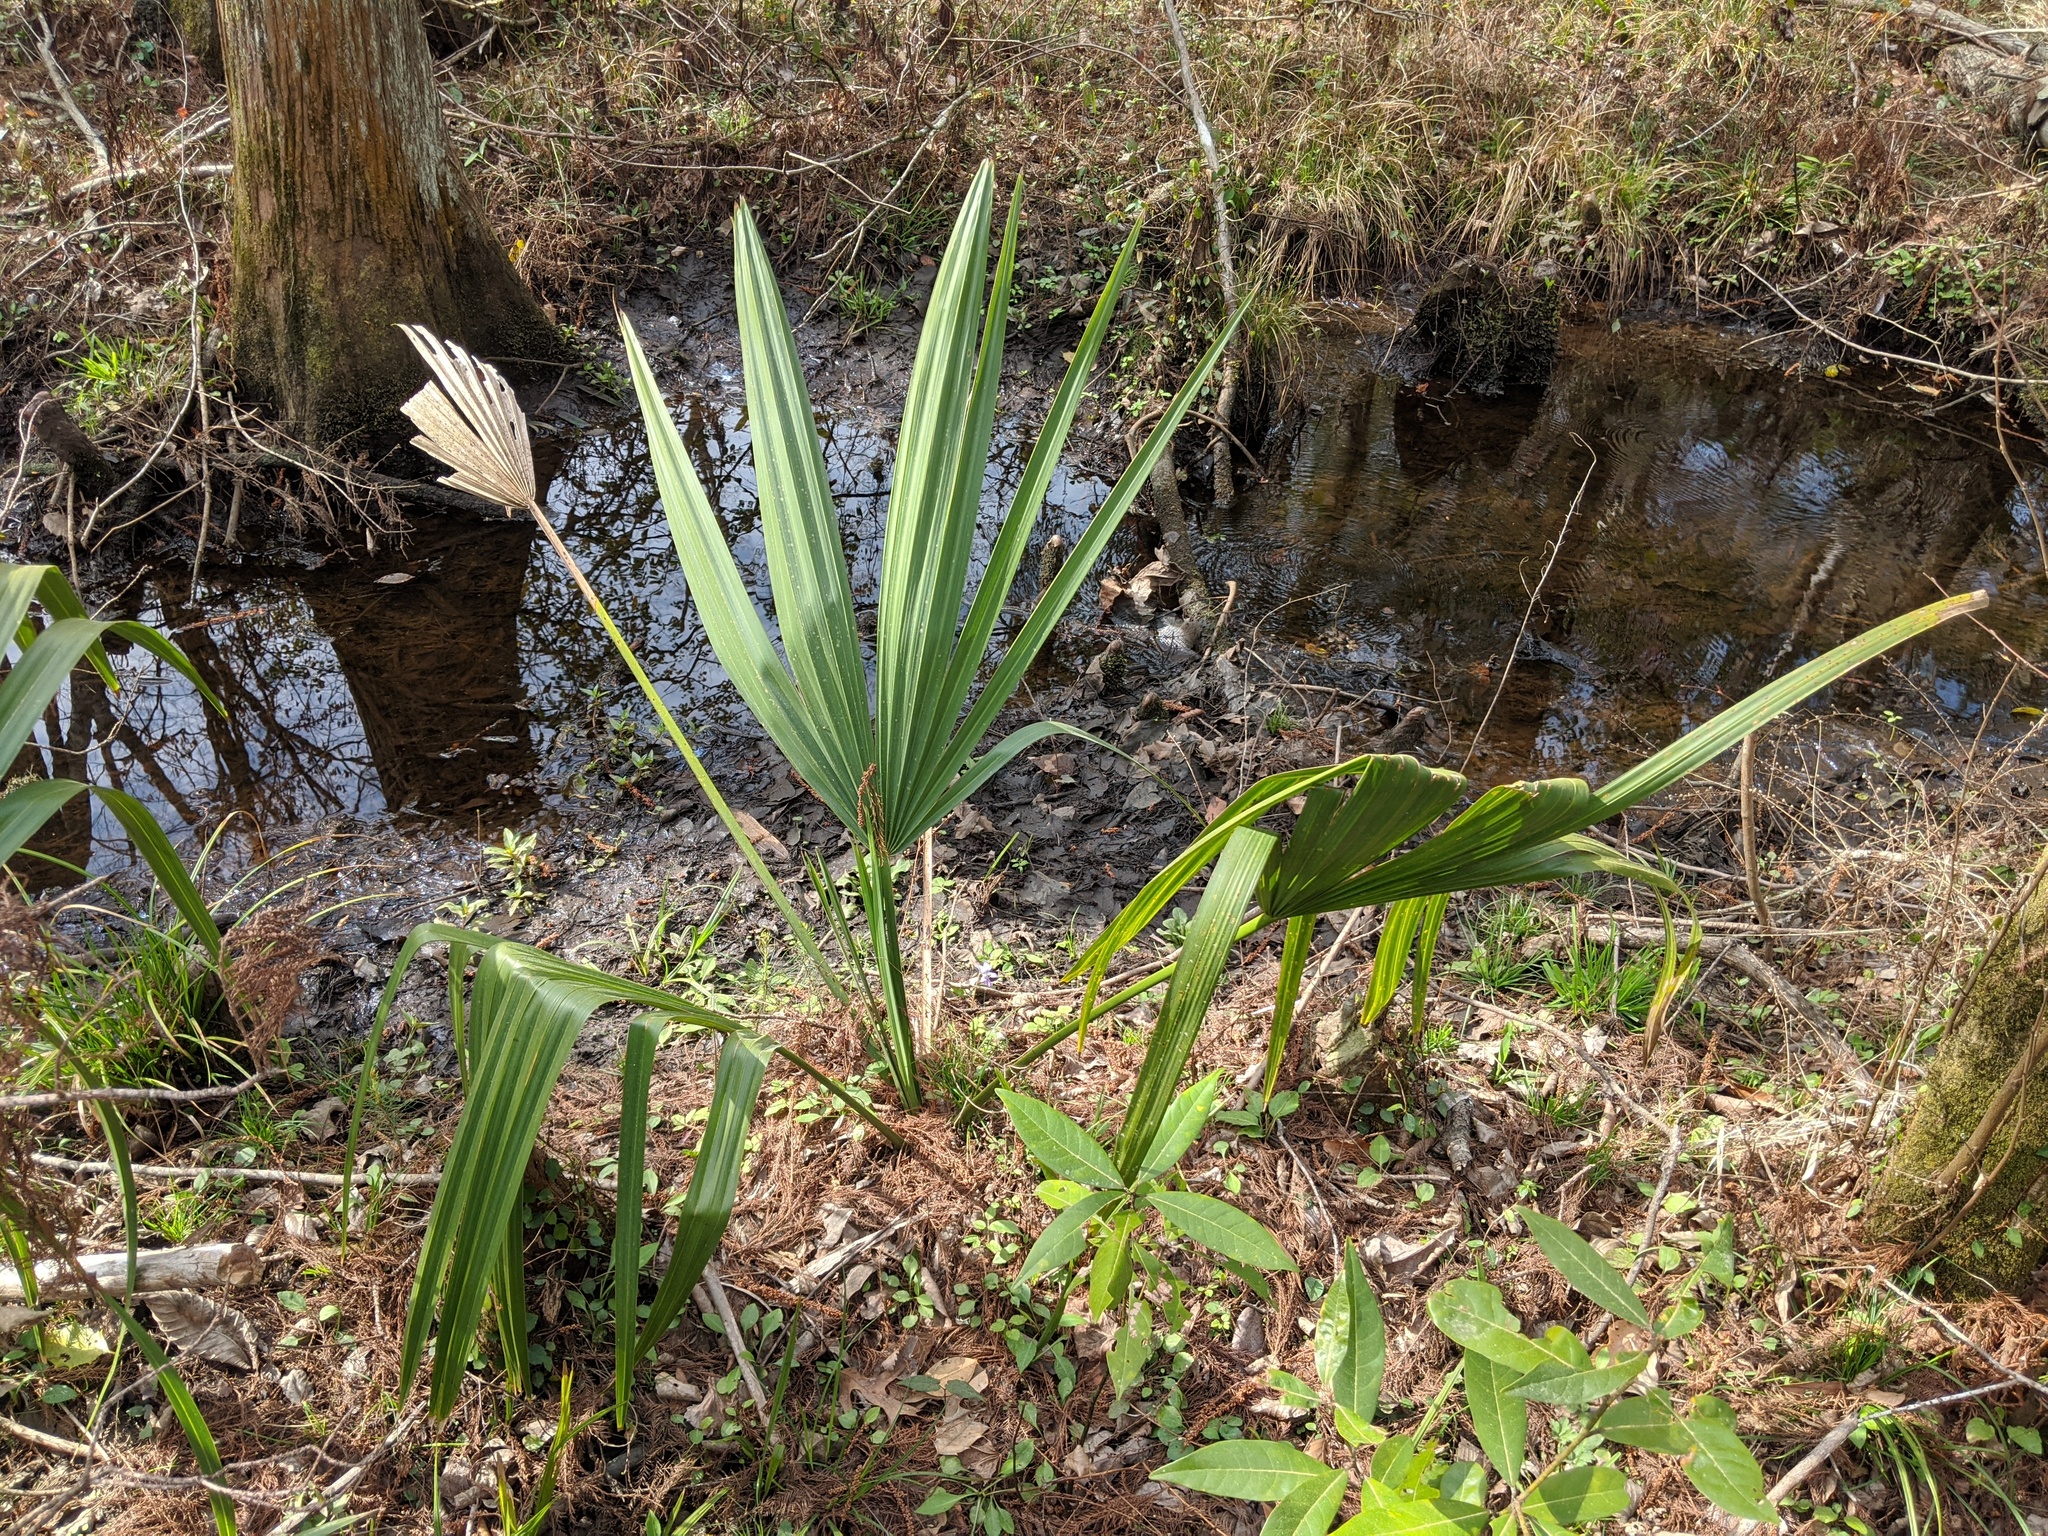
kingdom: Plantae
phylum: Tracheophyta
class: Liliopsida
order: Arecales
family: Arecaceae
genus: Sabal
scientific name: Sabal minor
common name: Dwarf palmetto
